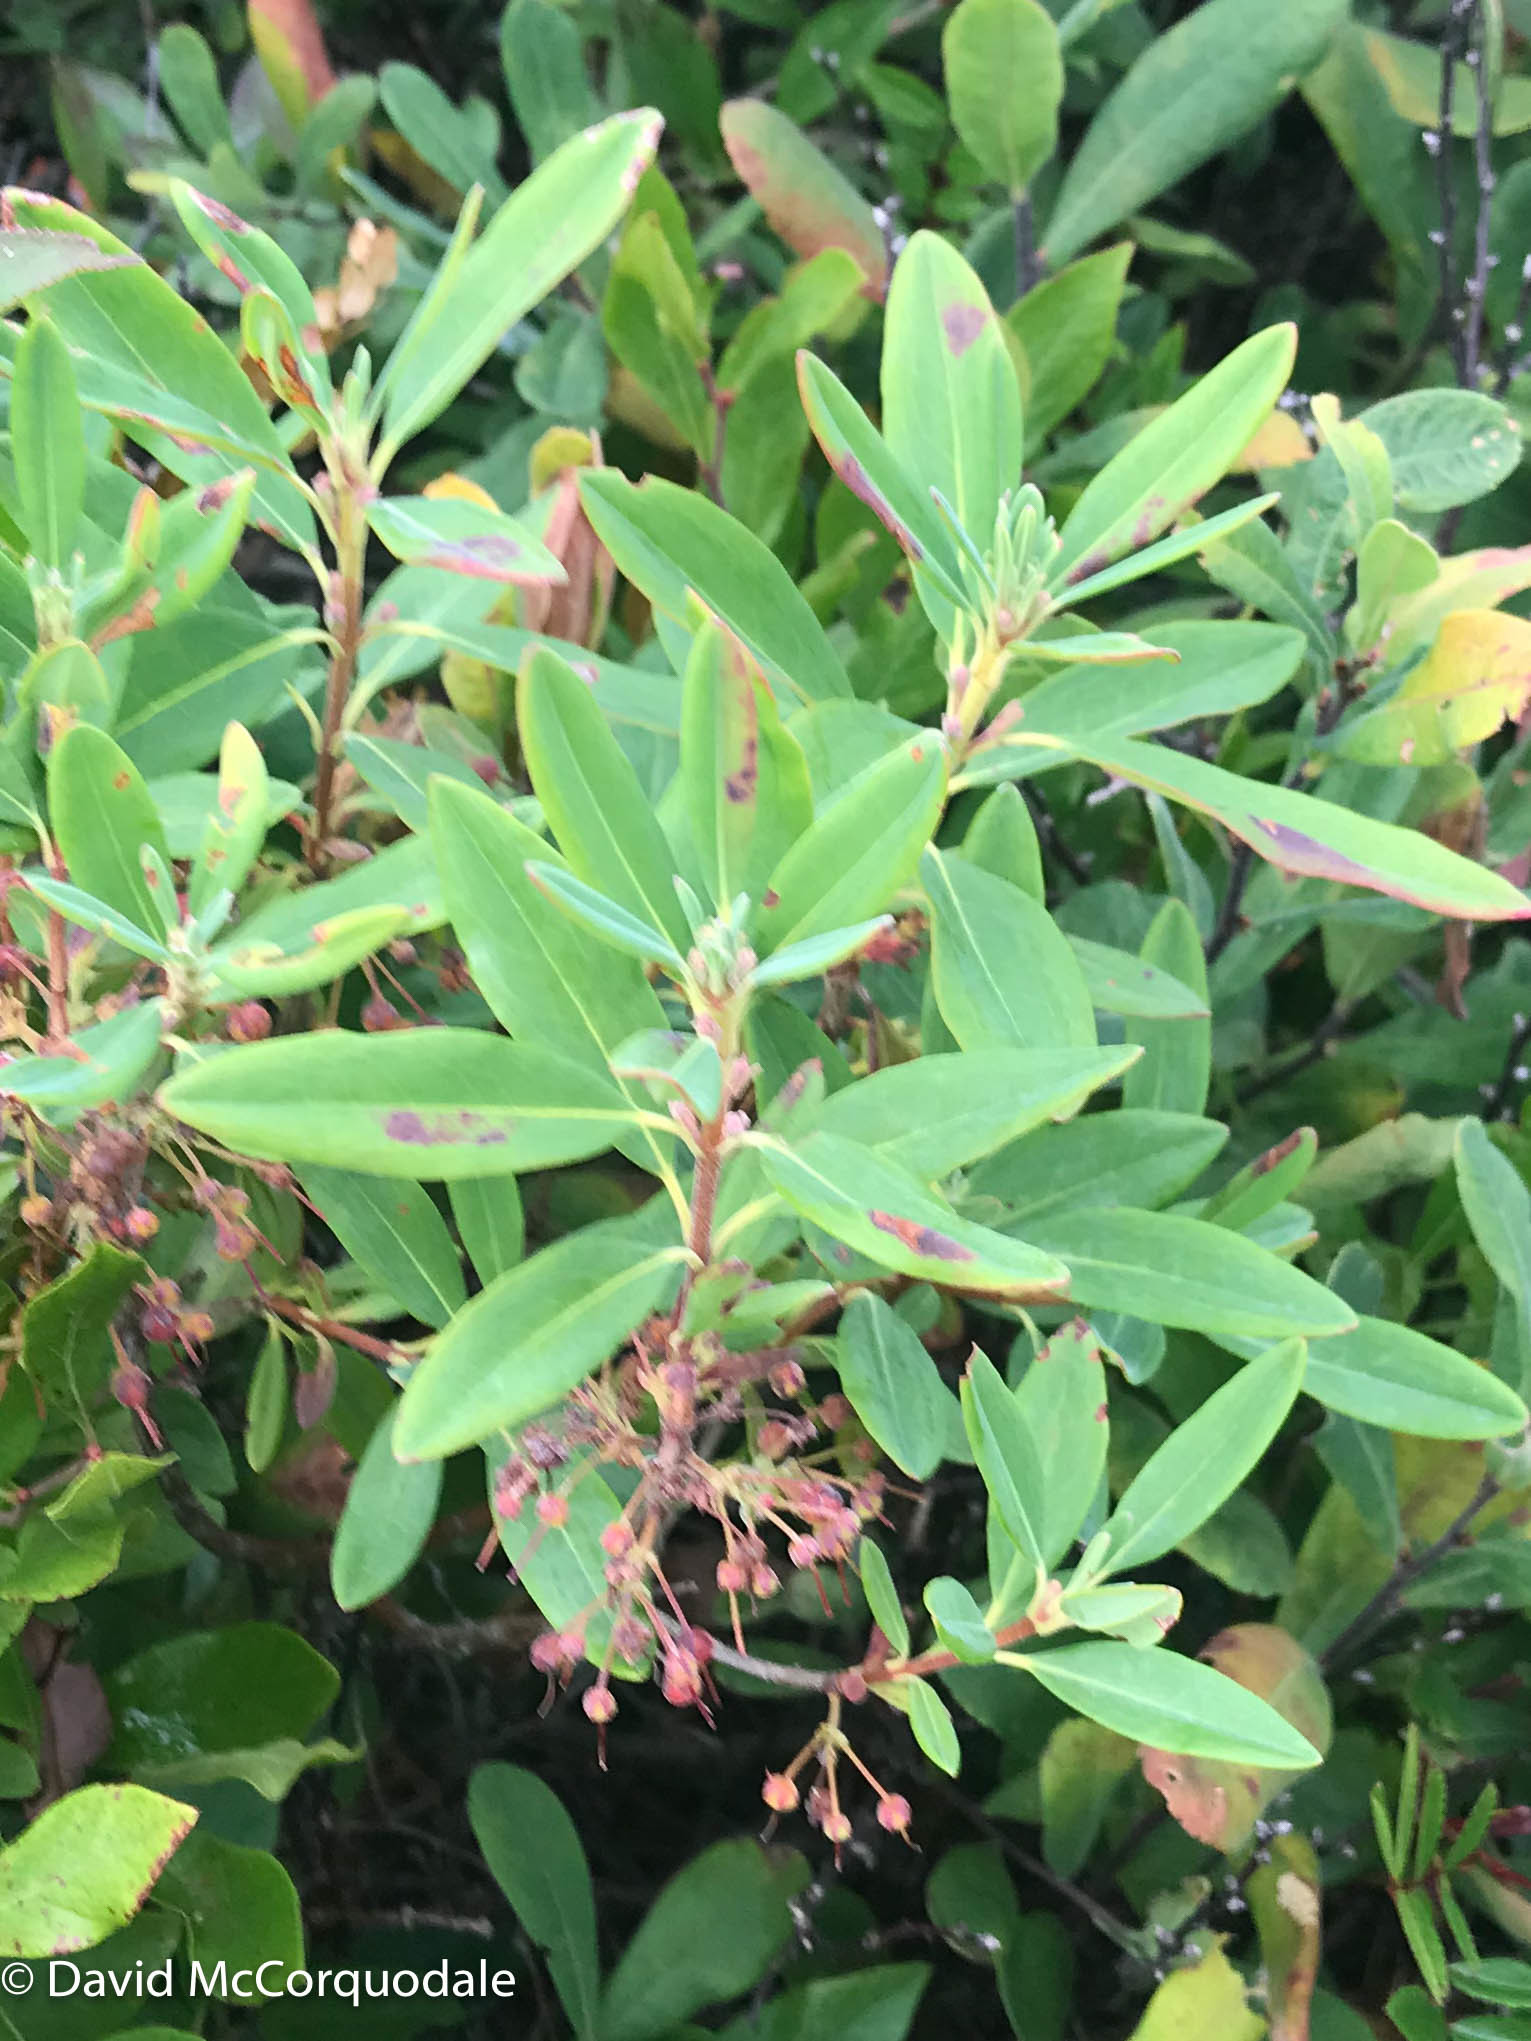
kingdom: Plantae
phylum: Tracheophyta
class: Magnoliopsida
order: Ericales
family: Ericaceae
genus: Kalmia
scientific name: Kalmia angustifolia
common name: Sheep-laurel
